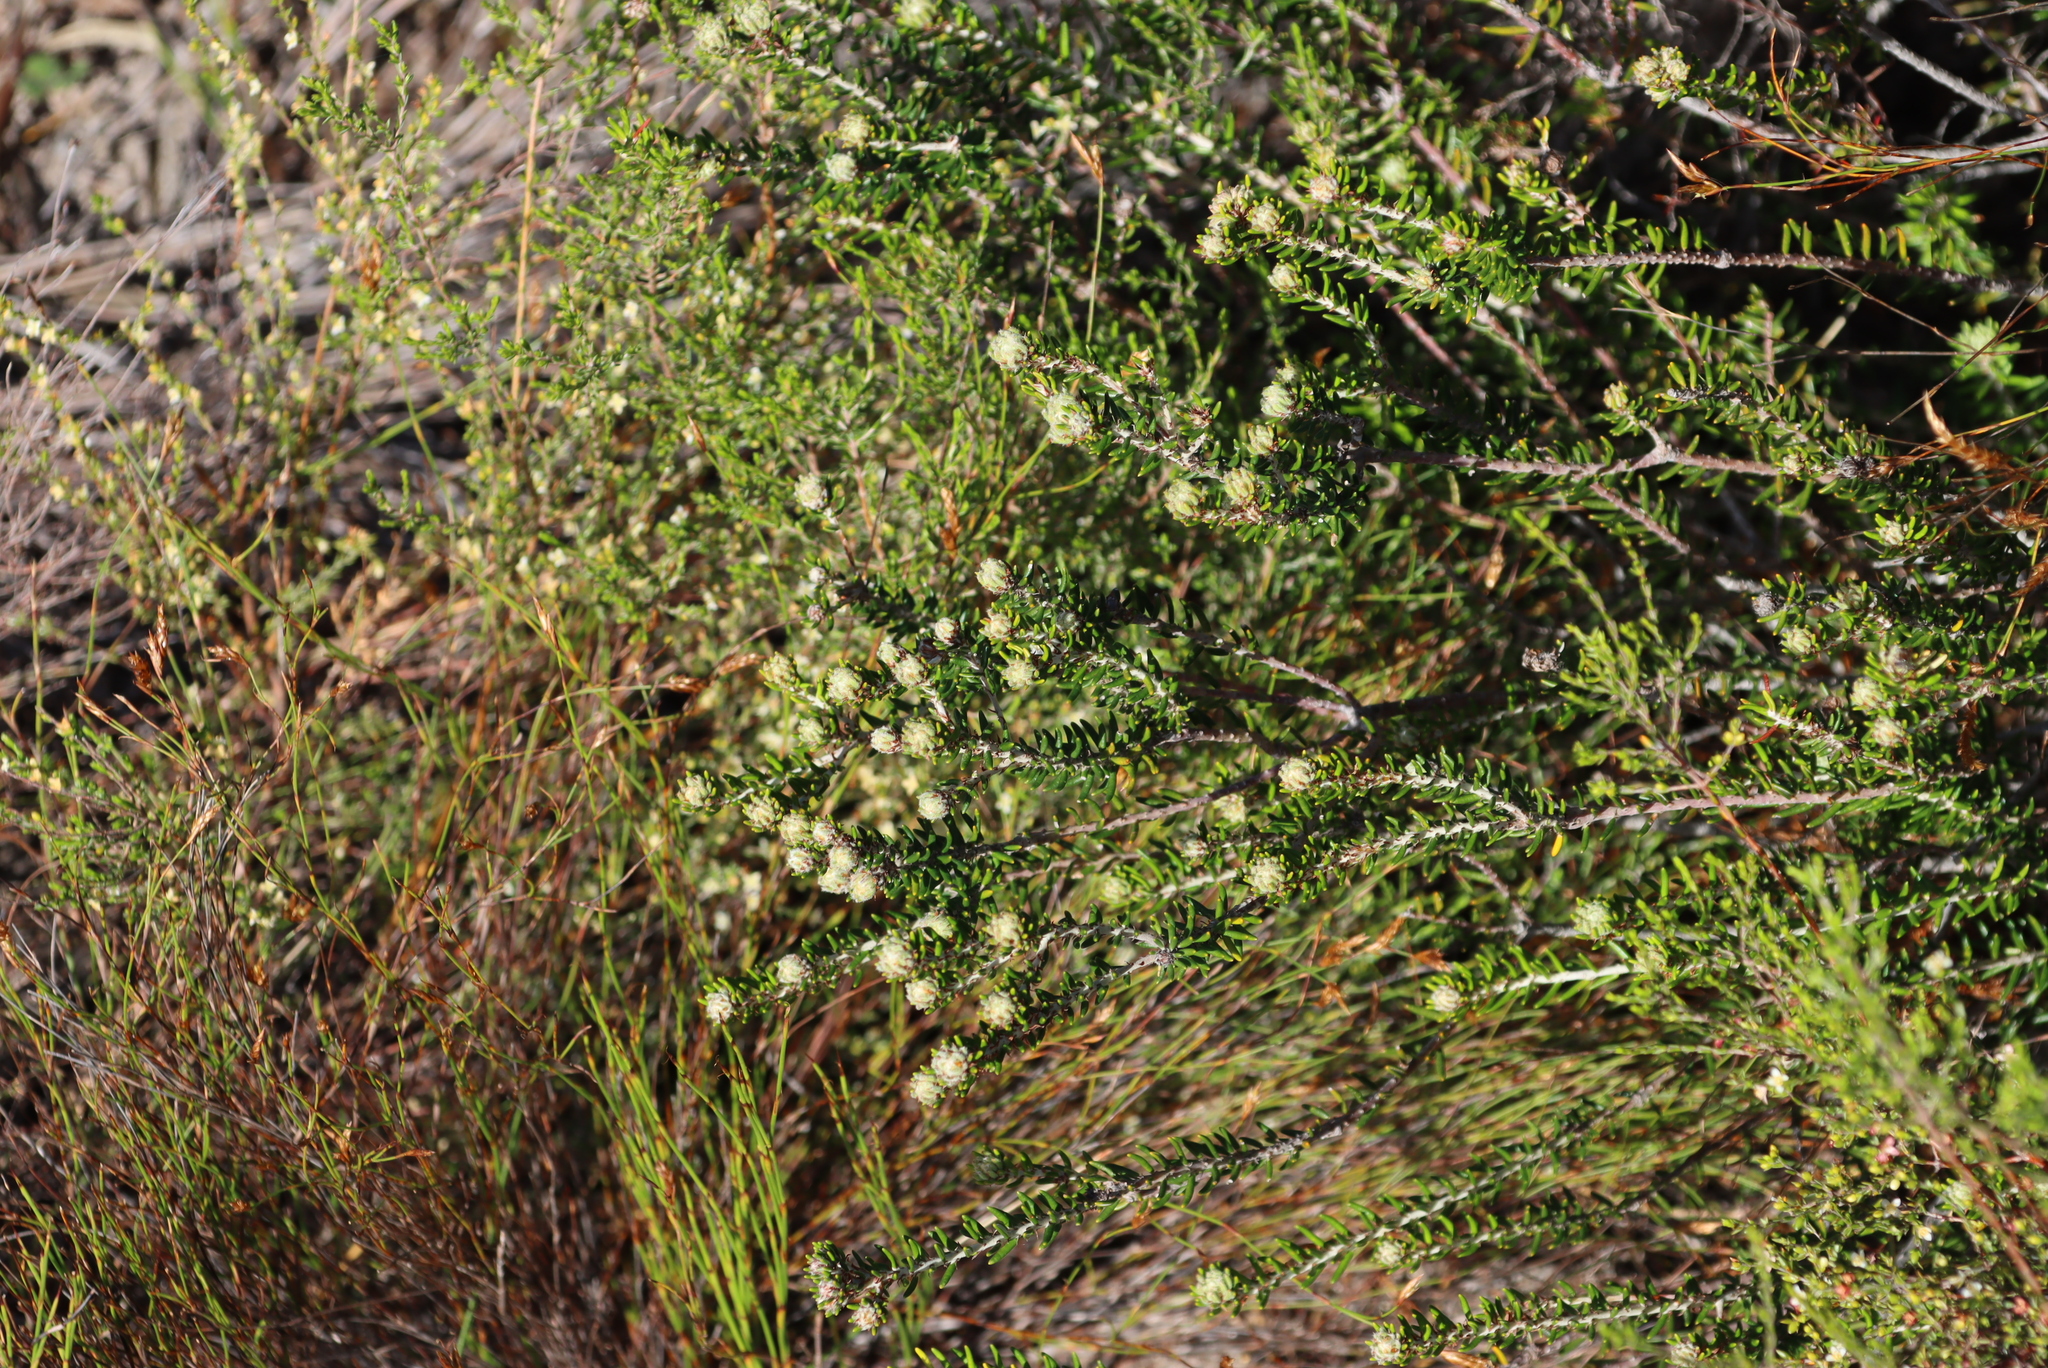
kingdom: Plantae
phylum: Tracheophyta
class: Magnoliopsida
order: Rosales
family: Rhamnaceae
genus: Trichocephalus
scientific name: Trichocephalus stipularis
